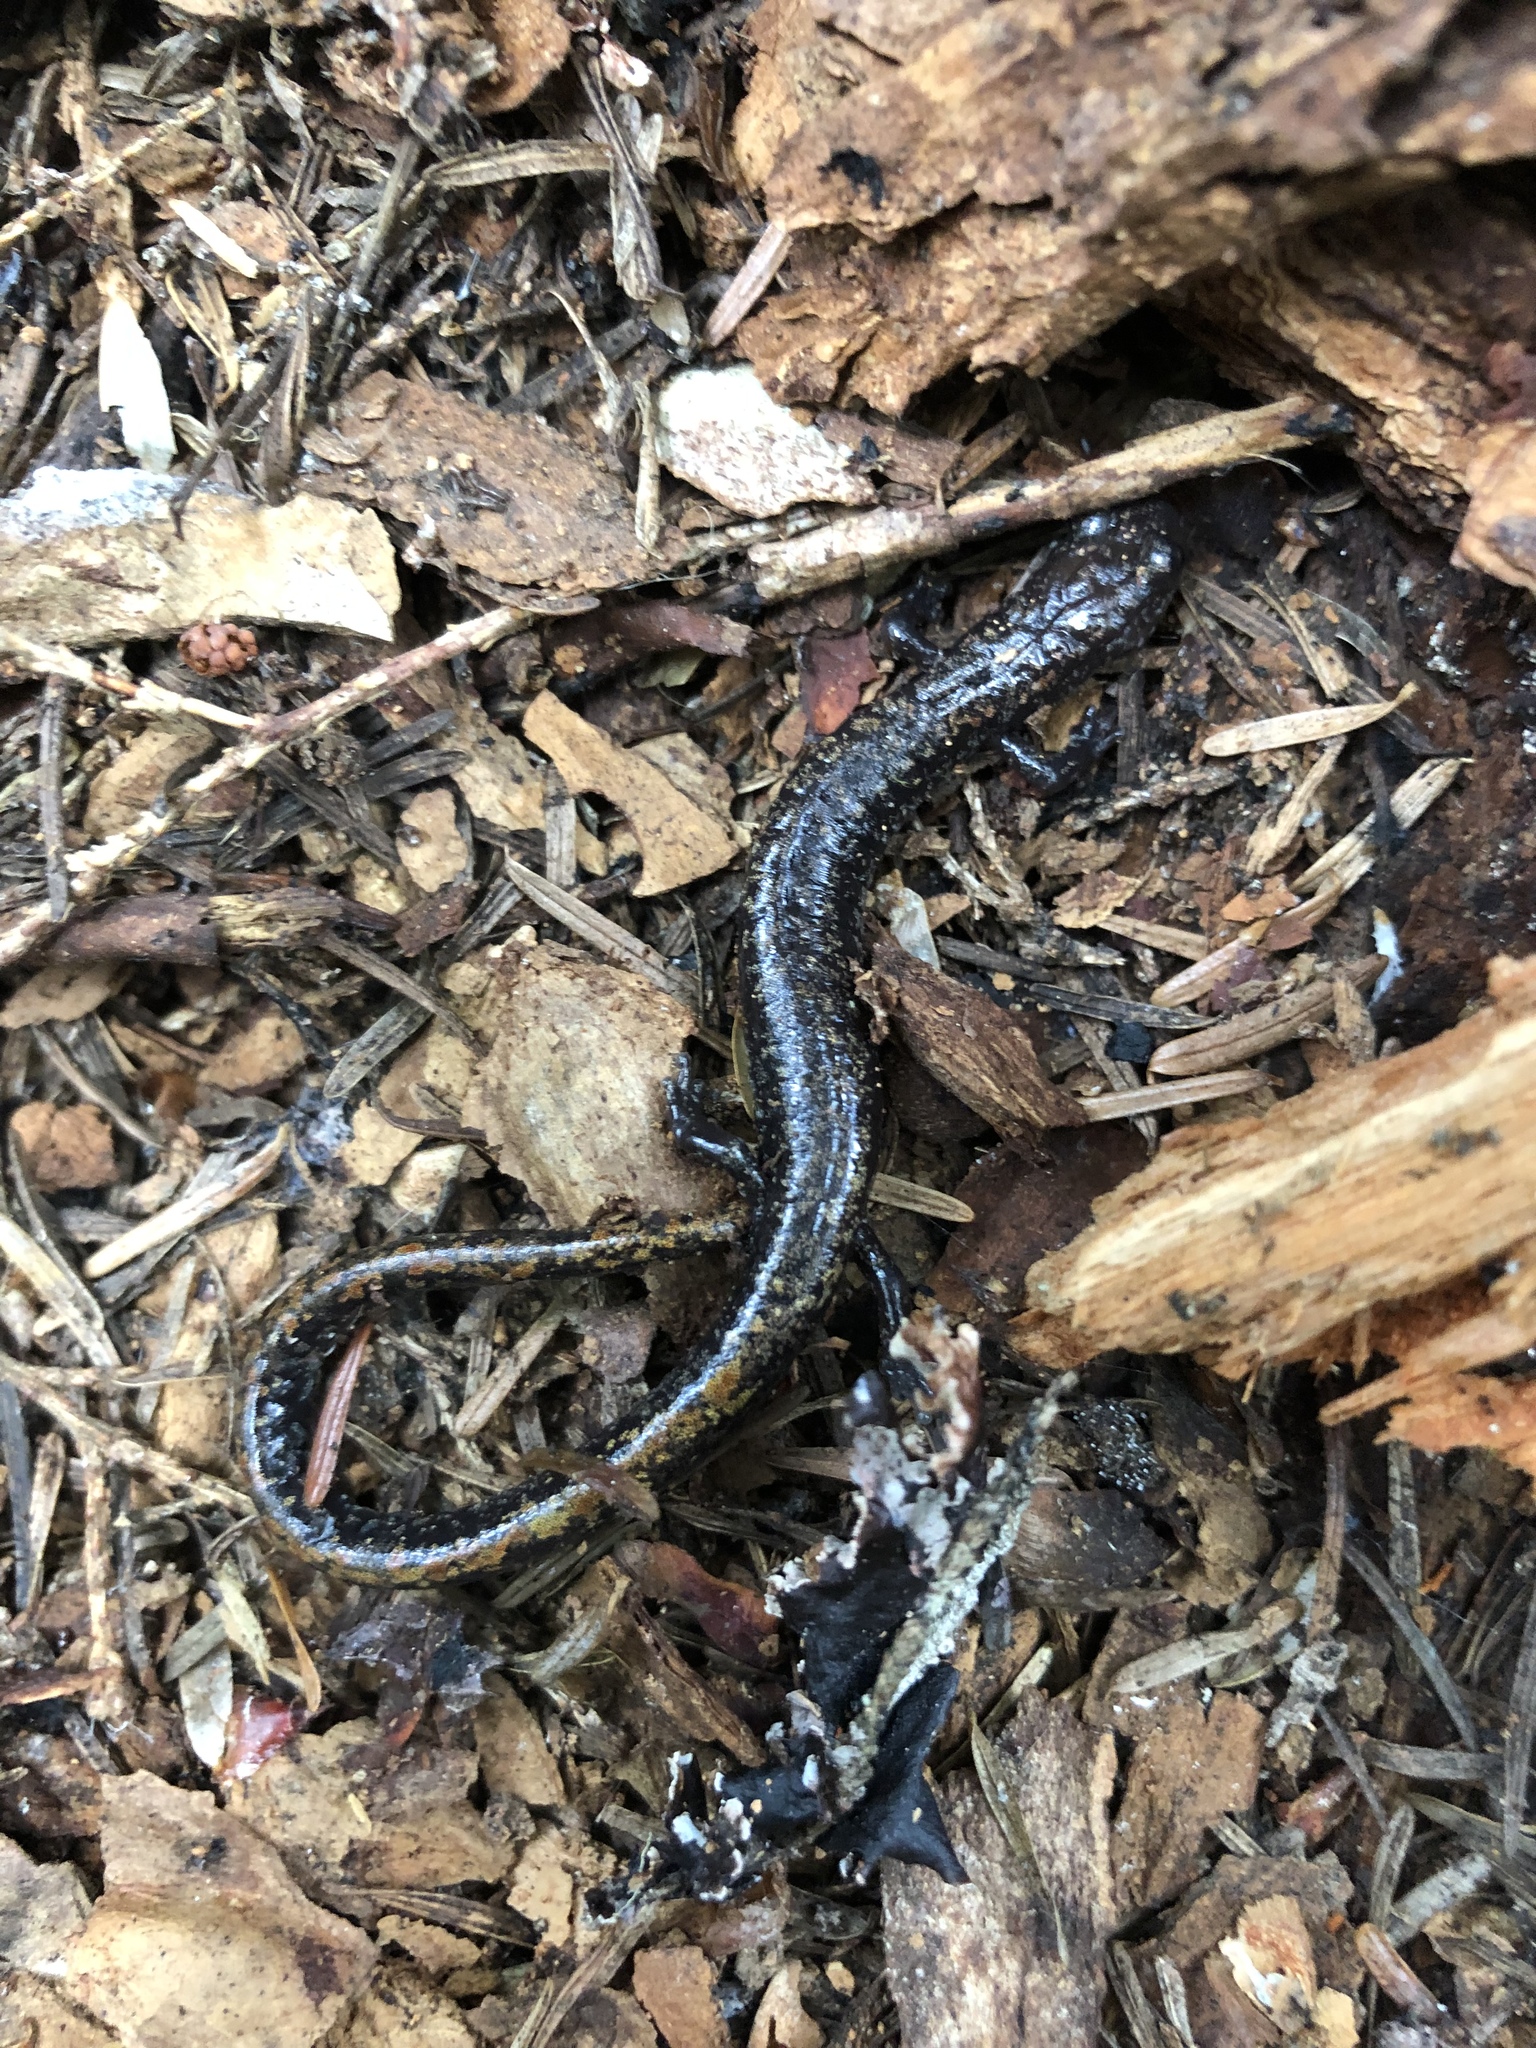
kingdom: Animalia
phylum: Chordata
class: Amphibia
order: Caudata
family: Plethodontidae
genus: Batrachoseps
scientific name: Batrachoseps wrighti
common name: Oregon slender salamander
